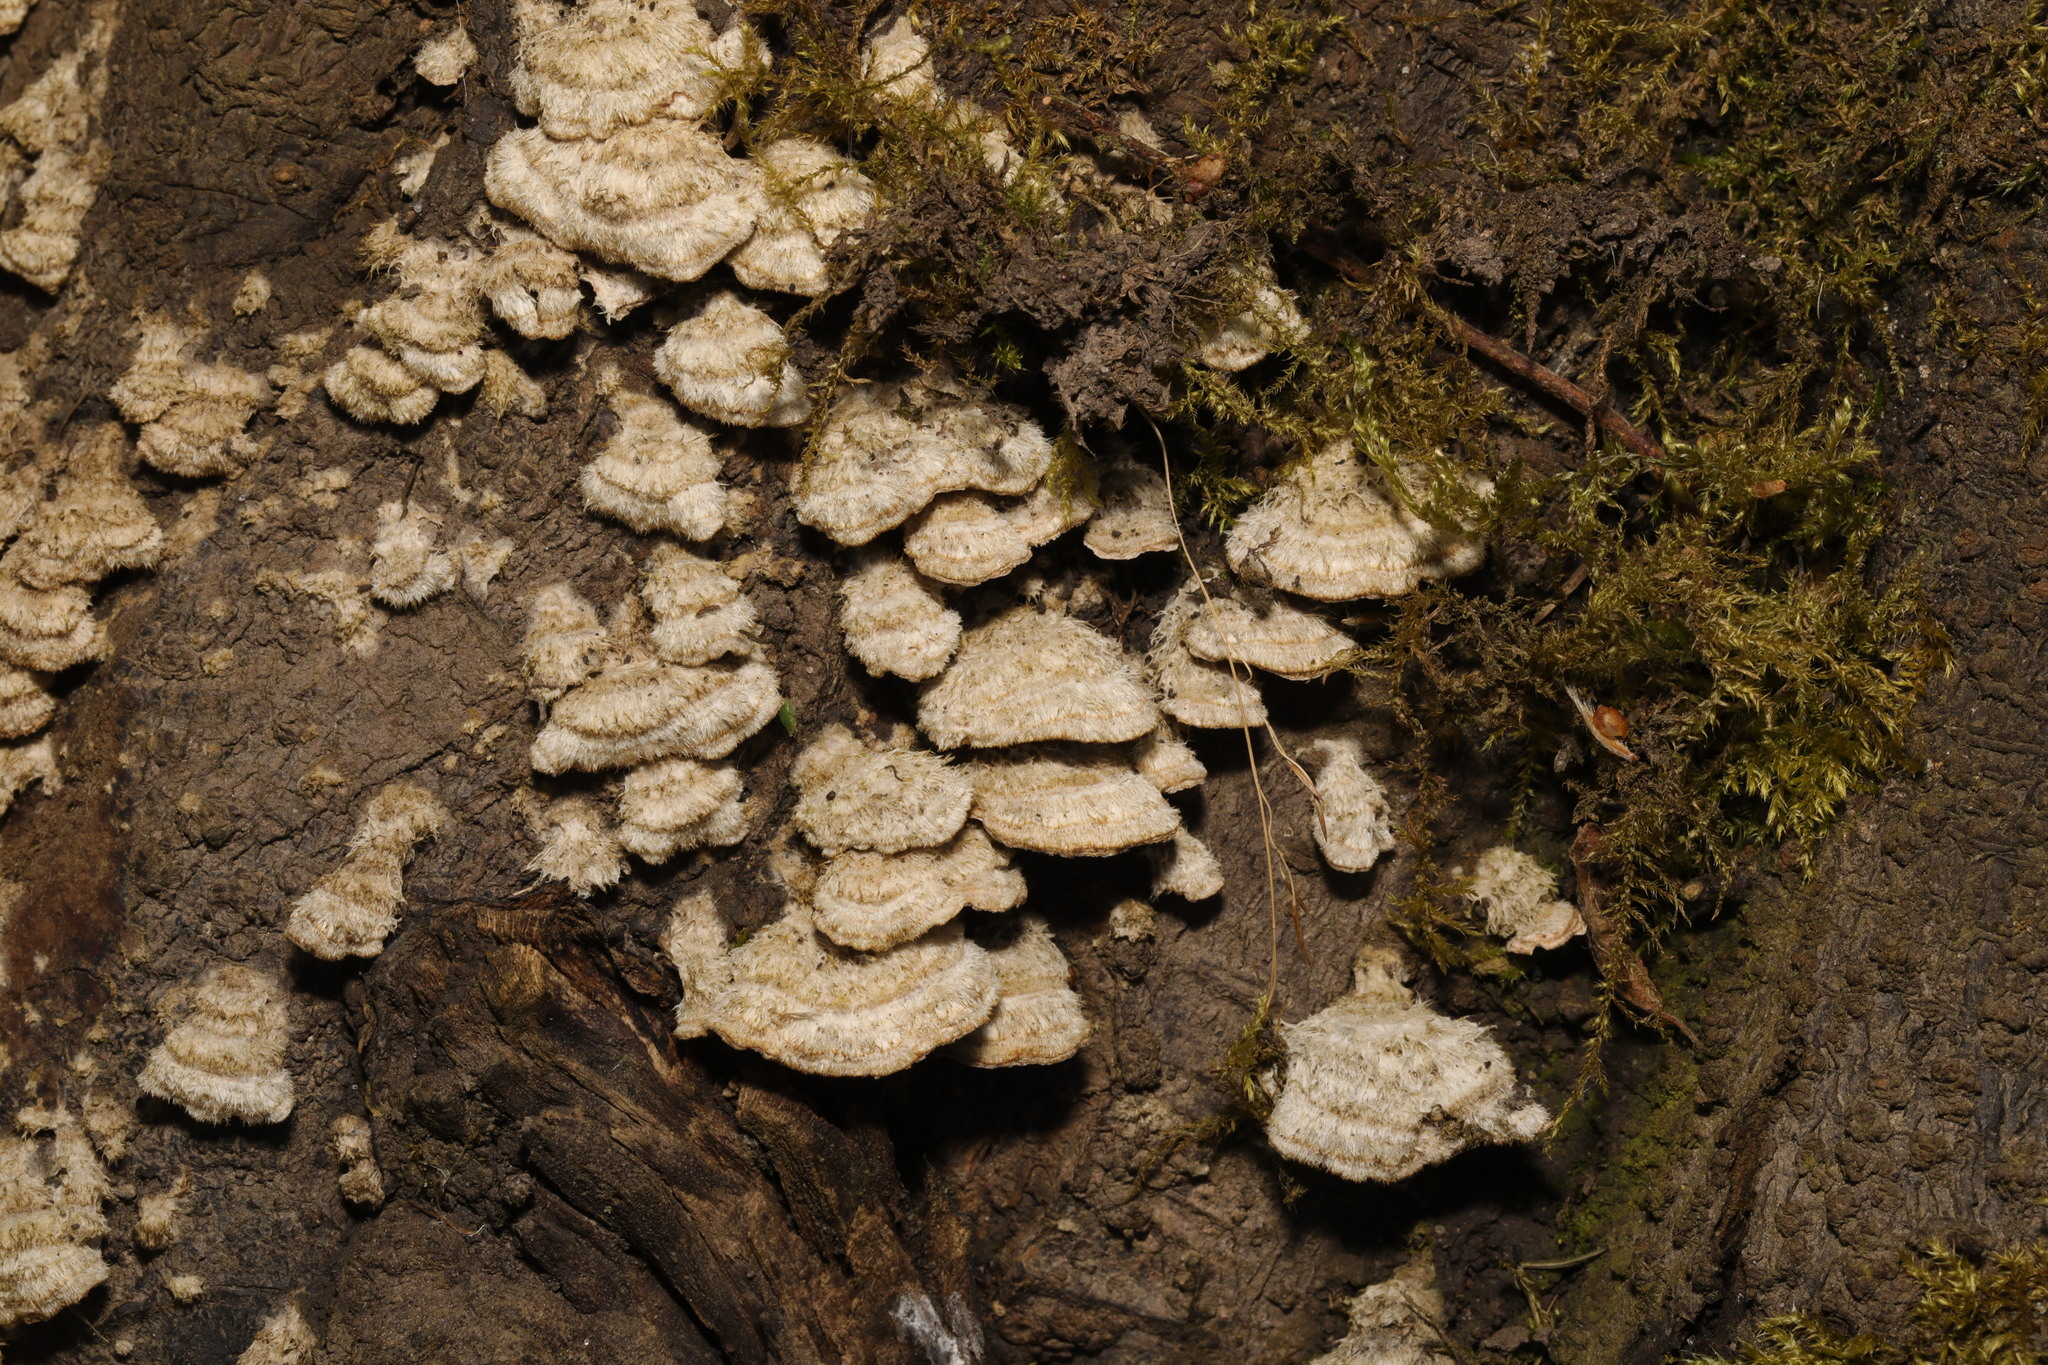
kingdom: Fungi
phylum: Basidiomycota
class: Agaricomycetes
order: Agaricales
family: Schizophyllaceae
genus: Schizophyllum
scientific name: Schizophyllum commune
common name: Common porecrust
